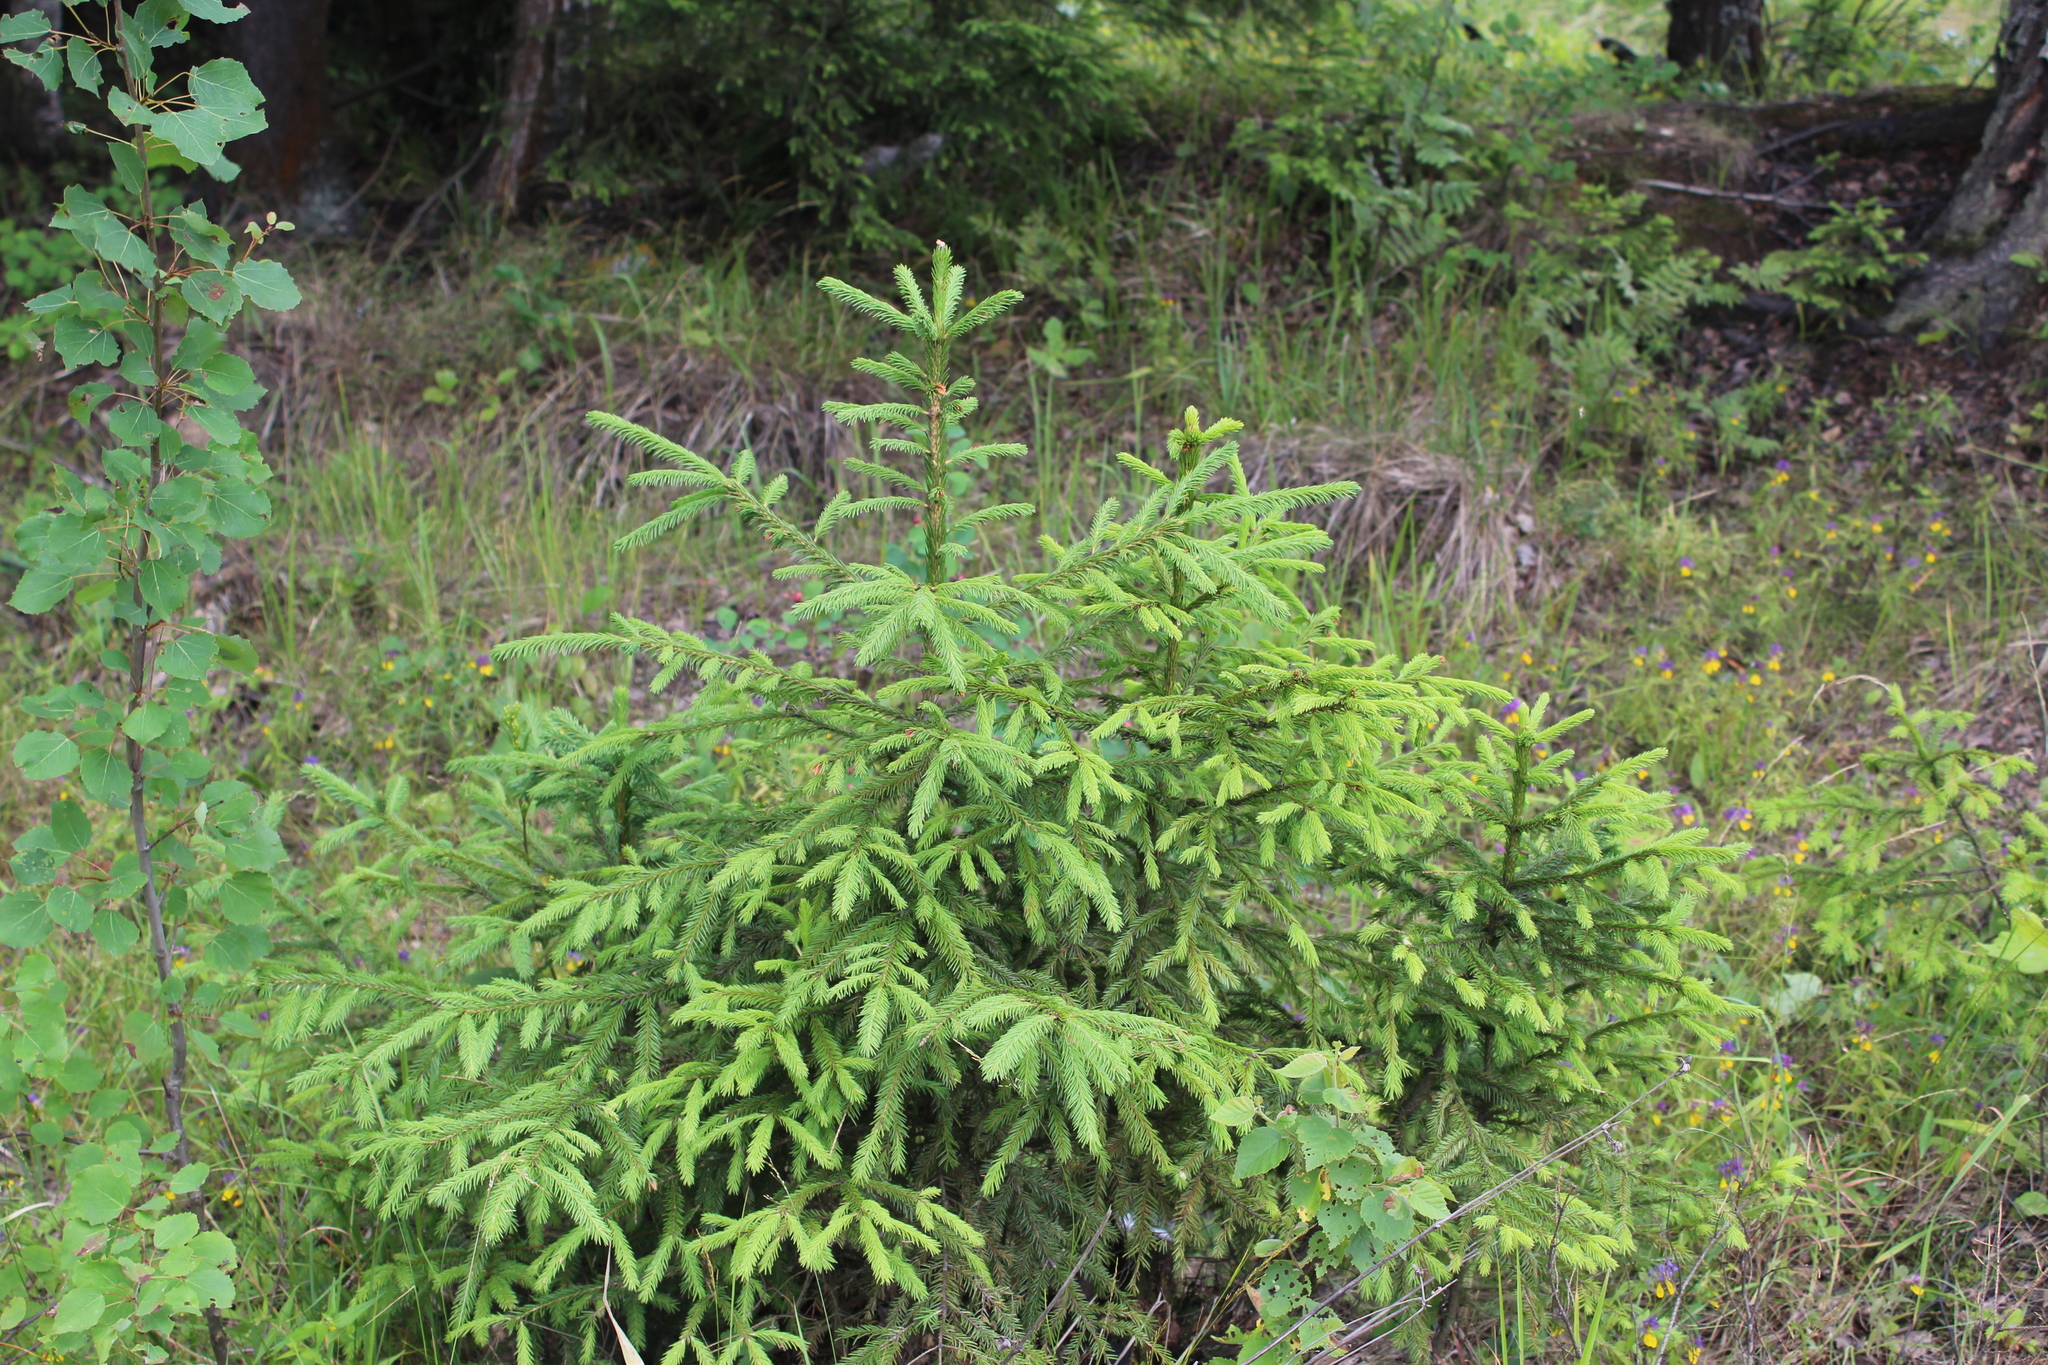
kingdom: Plantae
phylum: Tracheophyta
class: Pinopsida
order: Pinales
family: Pinaceae
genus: Picea
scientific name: Picea abies
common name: Norway spruce
